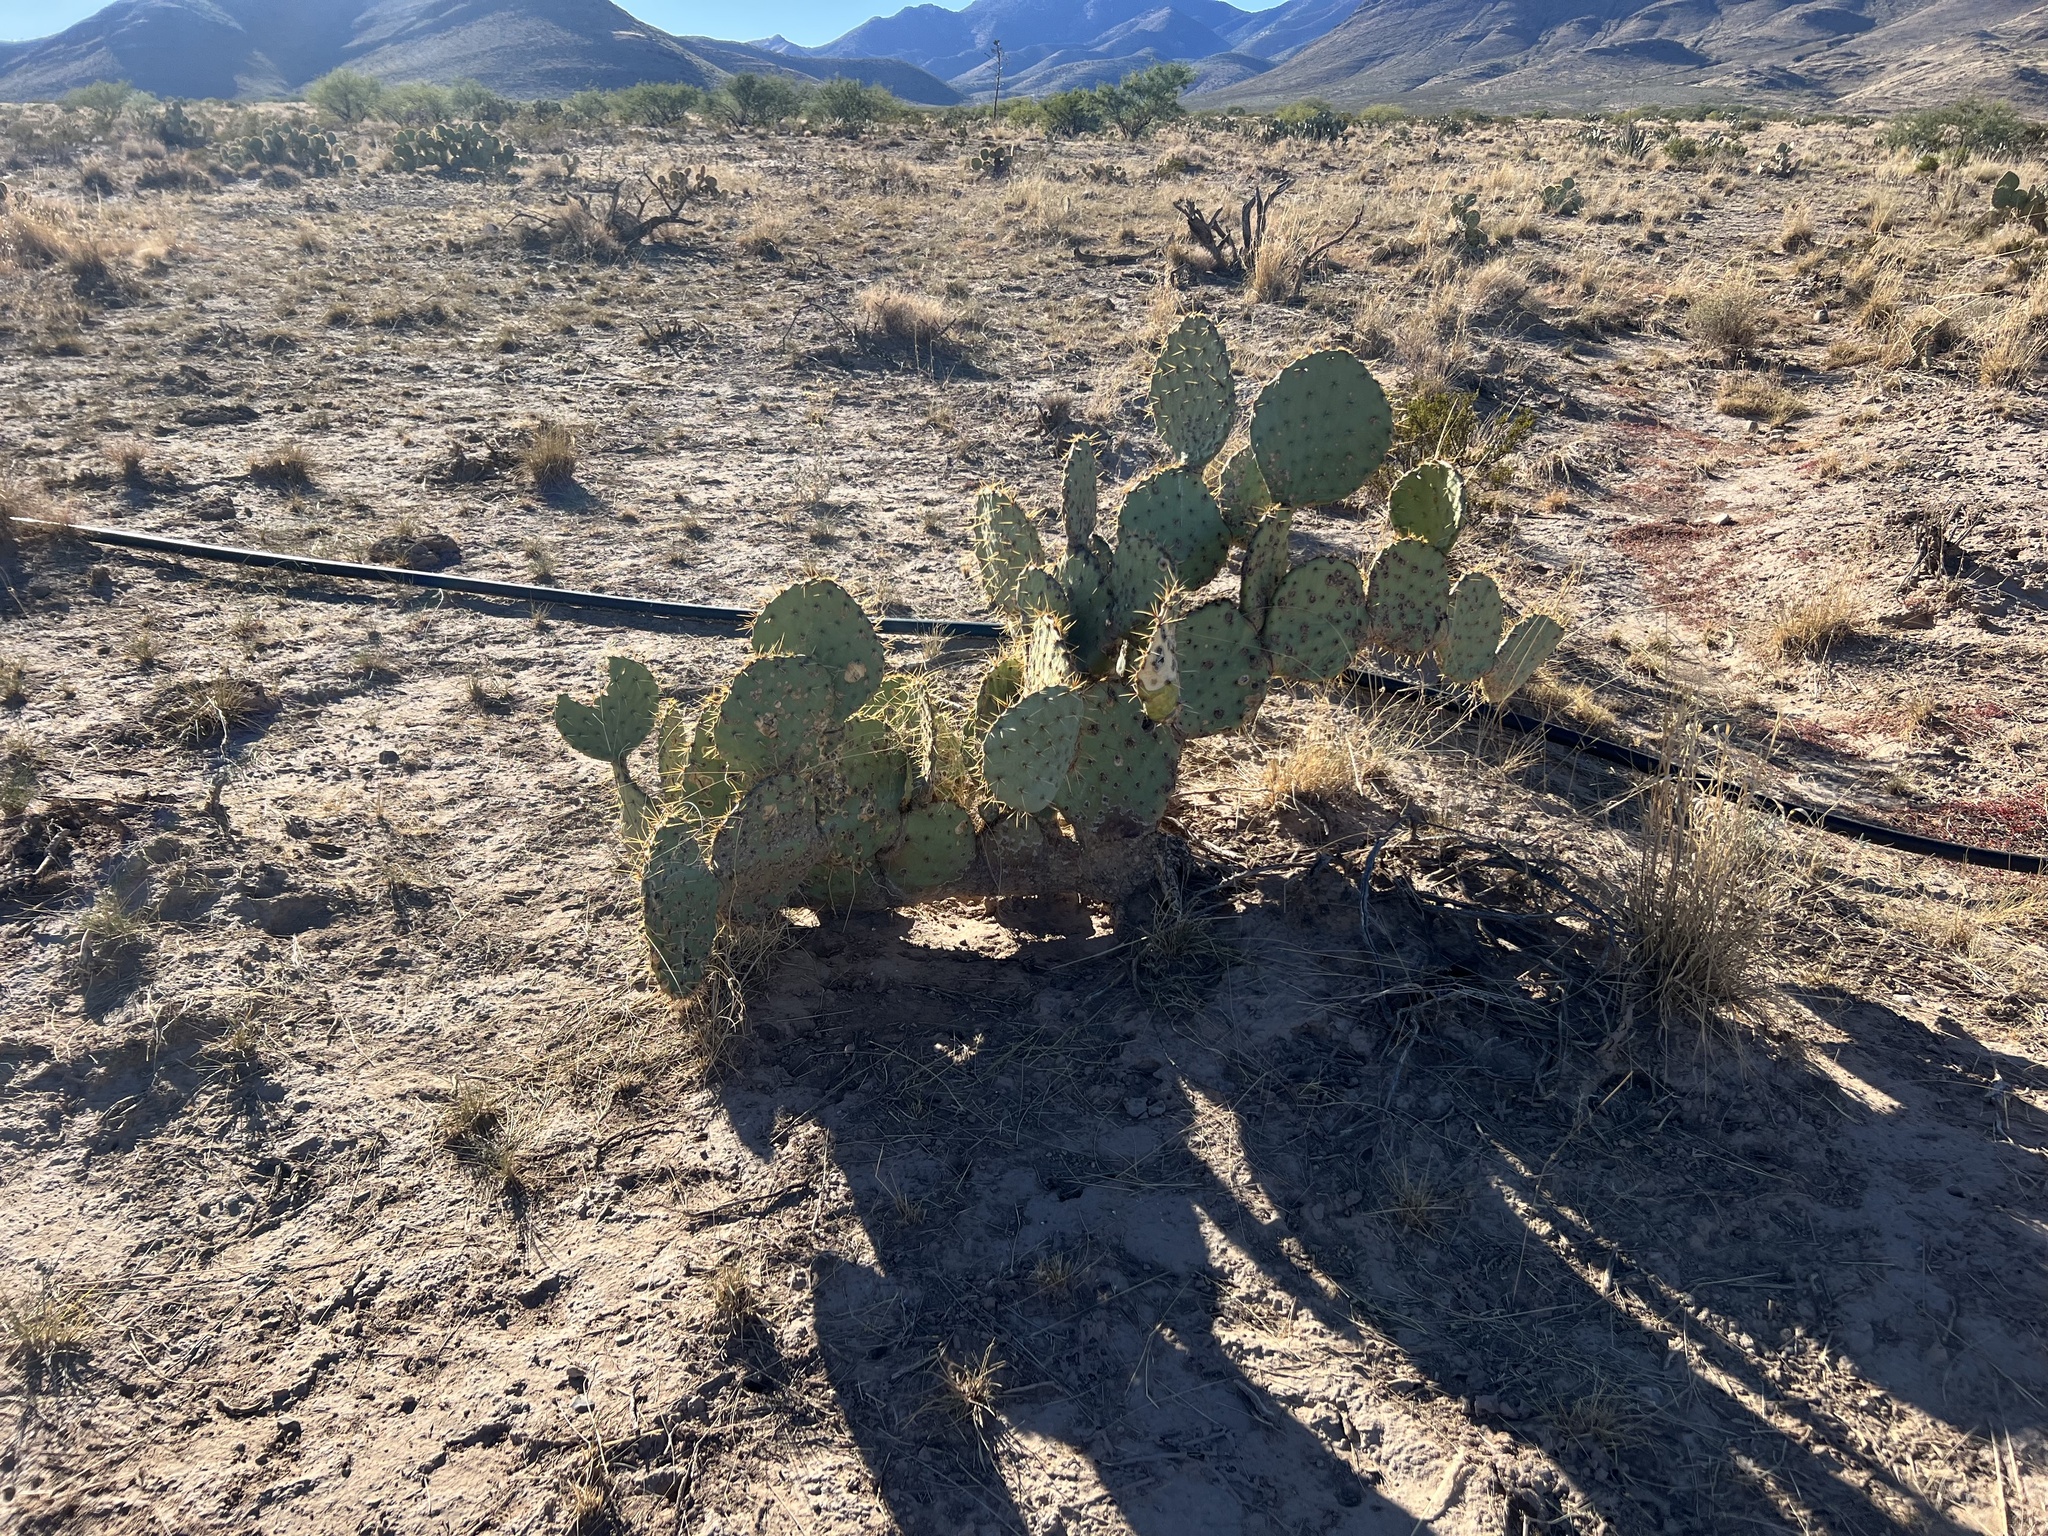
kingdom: Plantae
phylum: Tracheophyta
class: Magnoliopsida
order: Caryophyllales
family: Cactaceae
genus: Opuntia
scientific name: Opuntia engelmannii
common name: Cactus-apple
